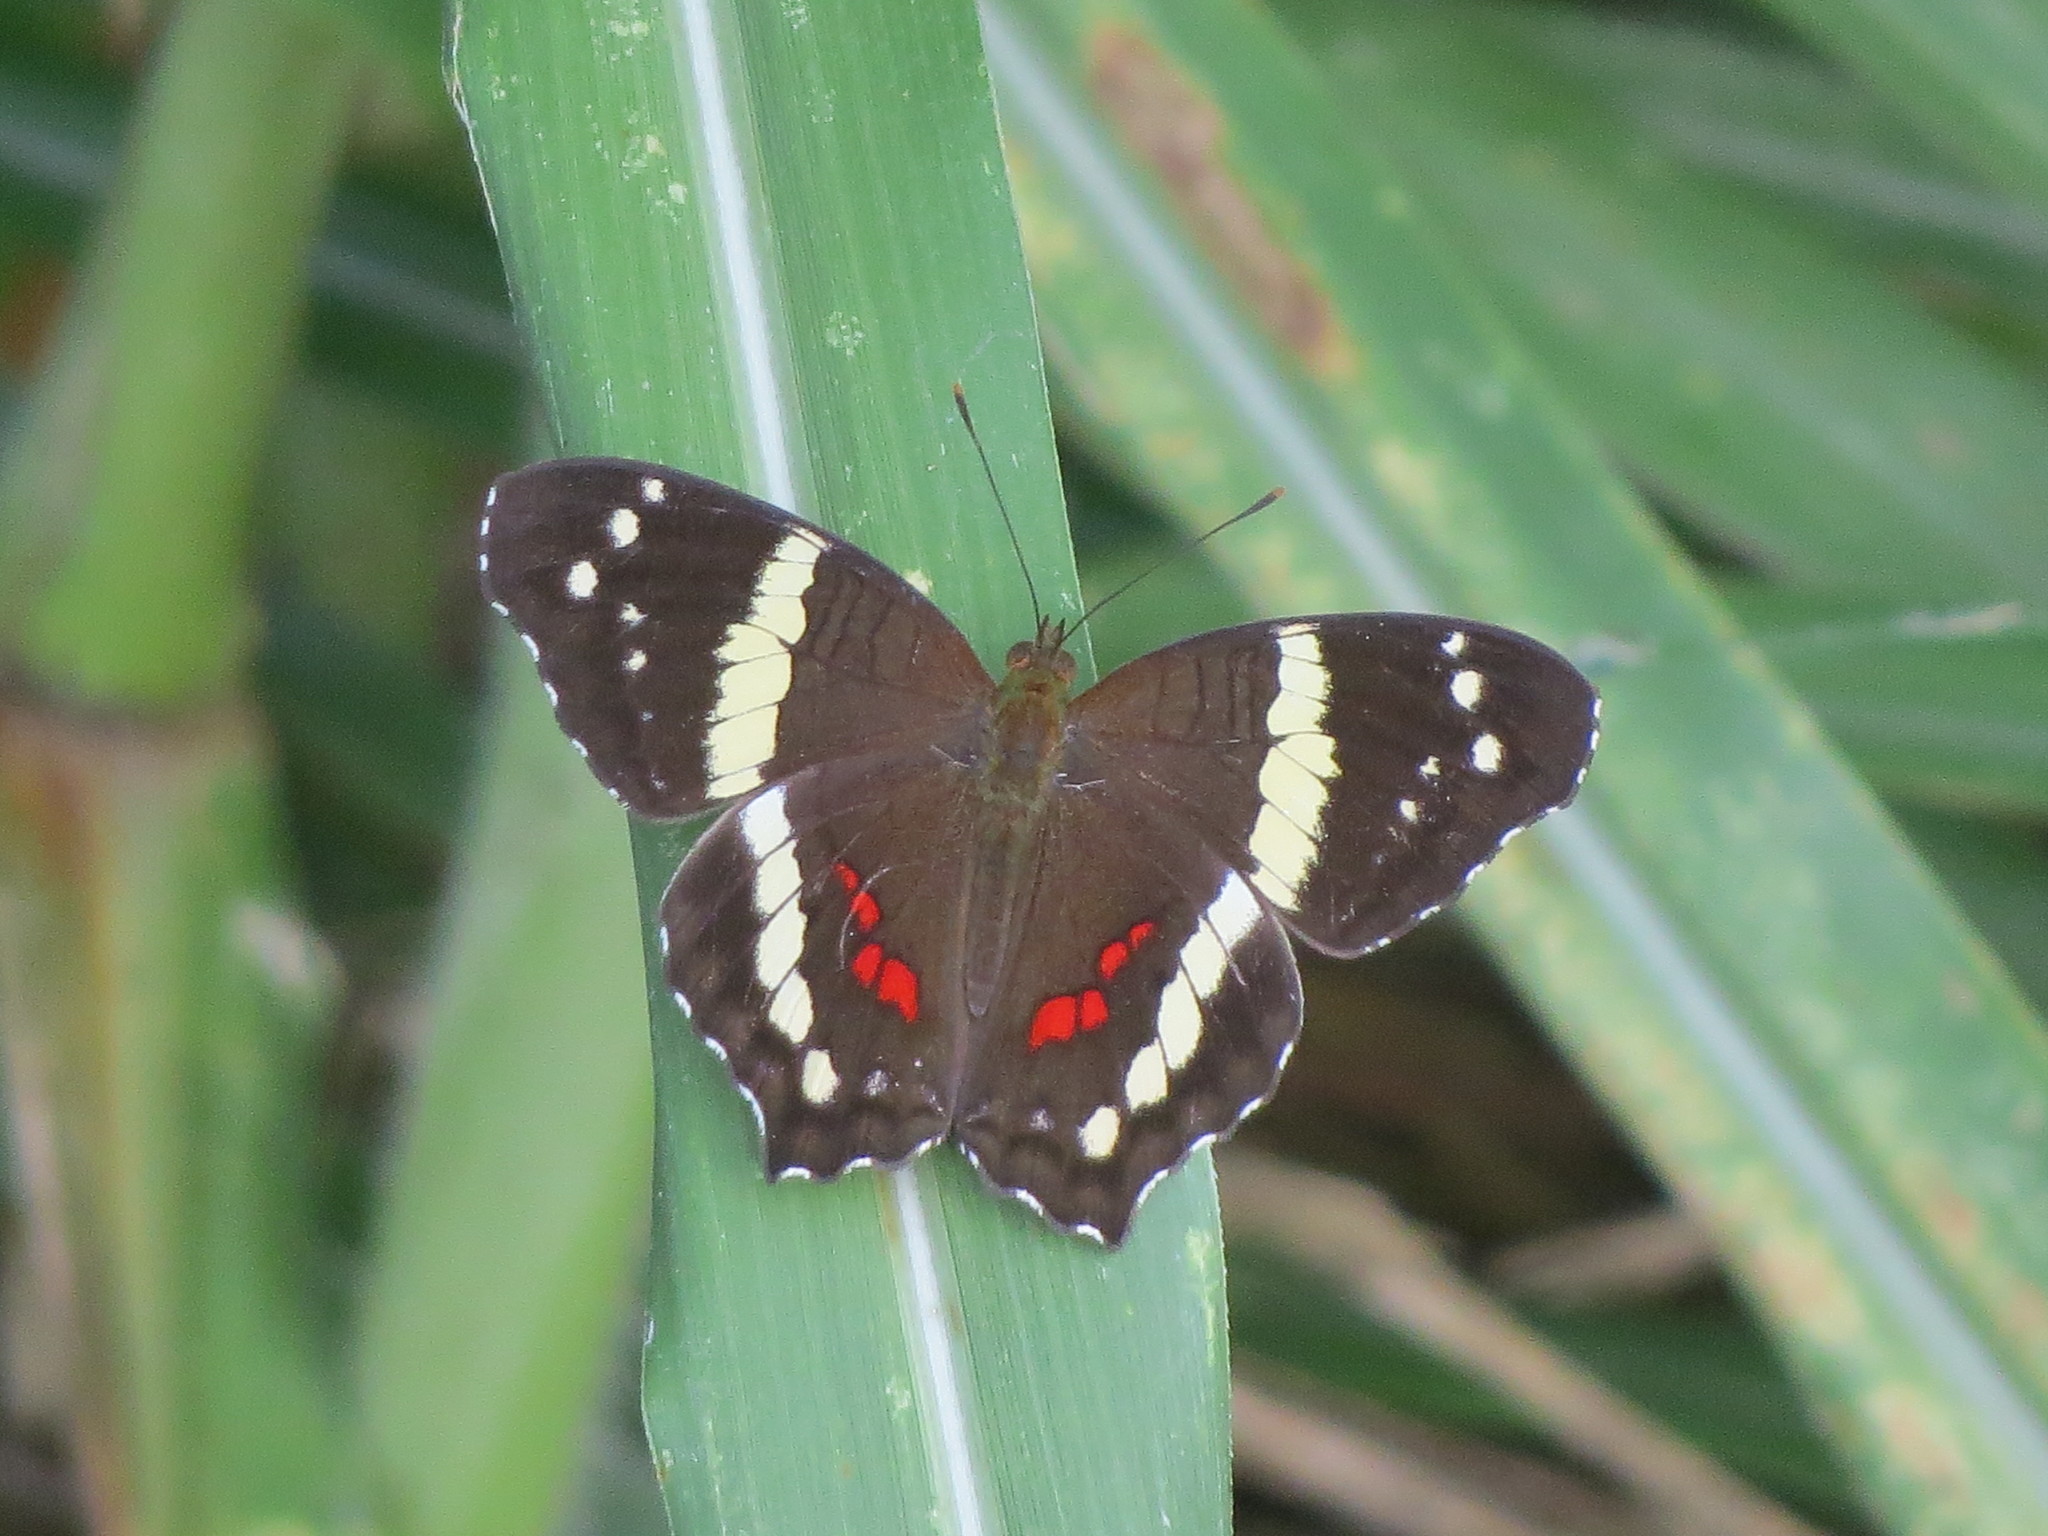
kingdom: Animalia
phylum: Arthropoda
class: Insecta
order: Lepidoptera
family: Nymphalidae
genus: Anartia
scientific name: Anartia fatima
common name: Banded peacock
